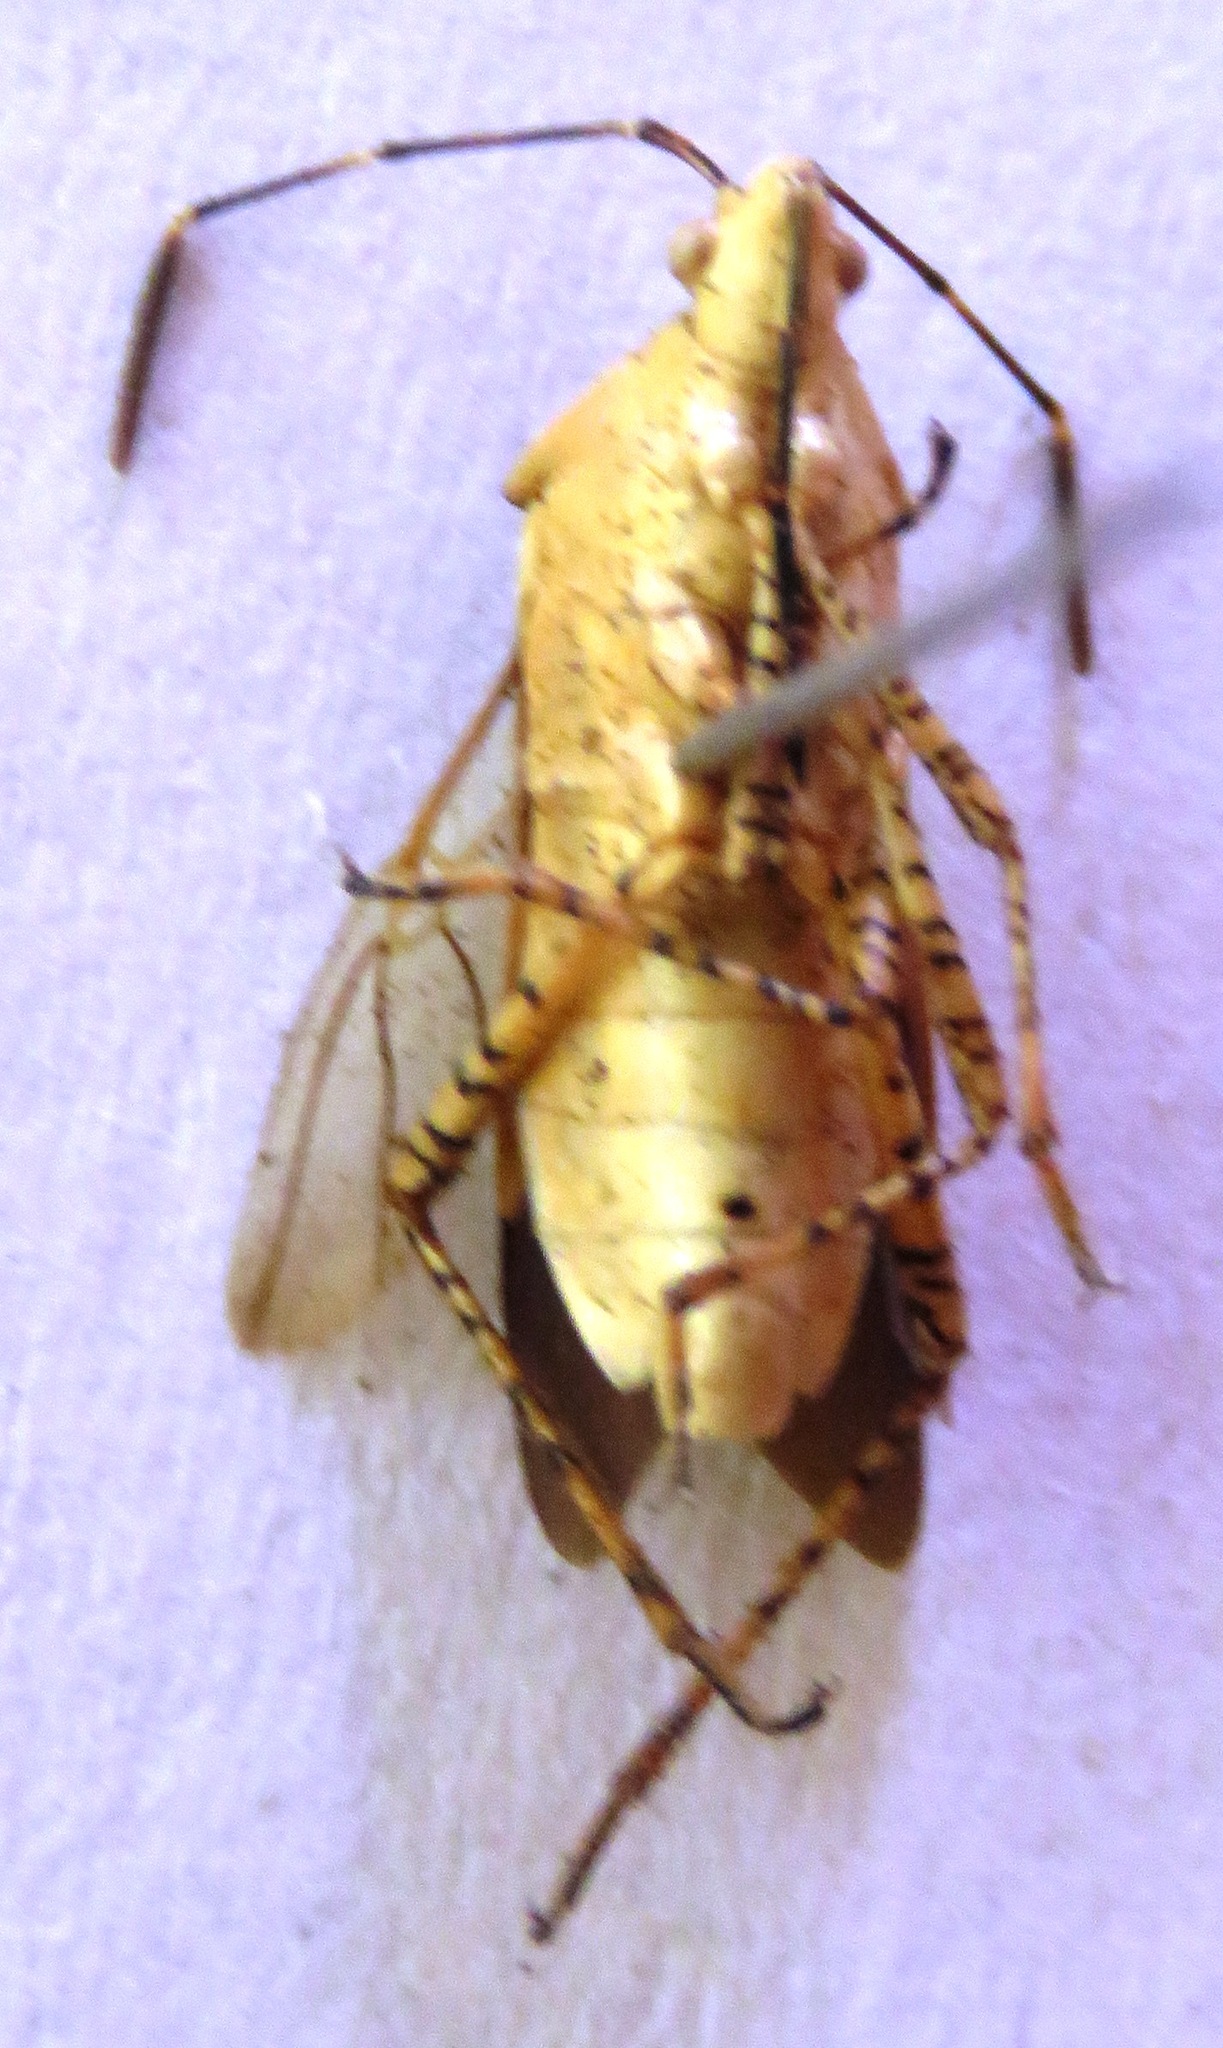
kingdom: Animalia
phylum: Arthropoda
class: Insecta
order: Hemiptera
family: Coreidae
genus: Hypselonotus
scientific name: Hypselonotus lineatus
